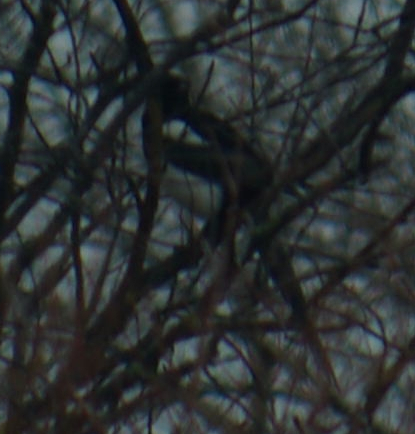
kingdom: Animalia
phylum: Chordata
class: Aves
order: Passeriformes
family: Corvidae
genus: Pica
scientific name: Pica hudsonia
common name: Black-billed magpie
